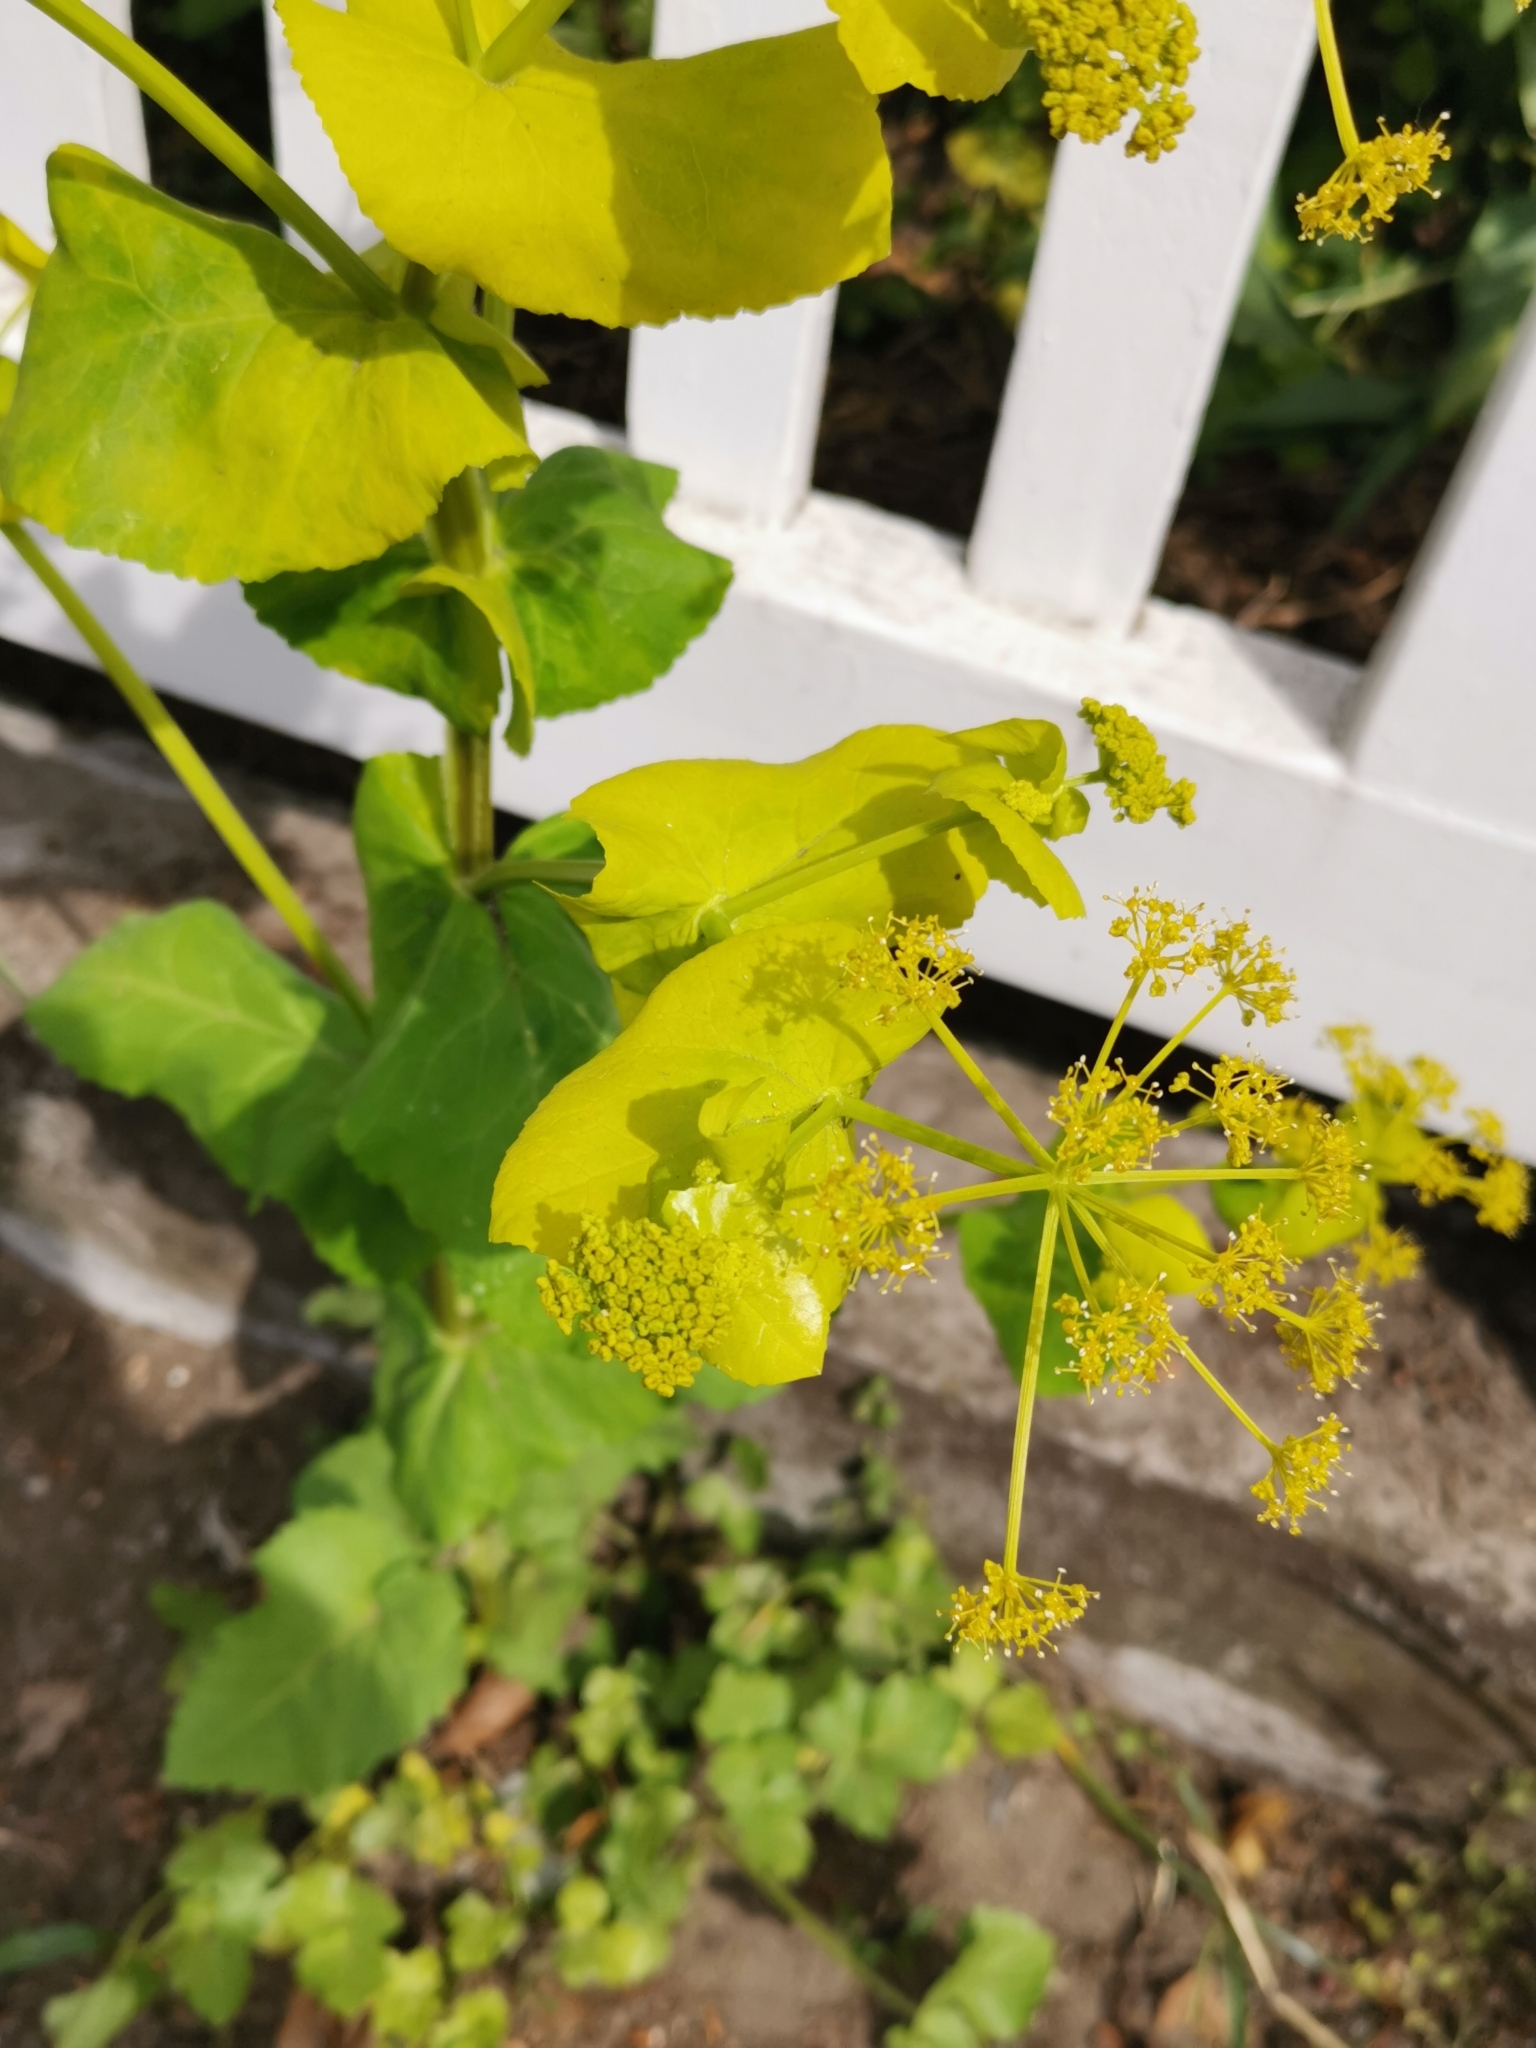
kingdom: Plantae
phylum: Tracheophyta
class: Magnoliopsida
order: Apiales
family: Apiaceae
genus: Smyrnium
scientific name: Smyrnium perfoliatum
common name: Perfoliate alexanders
